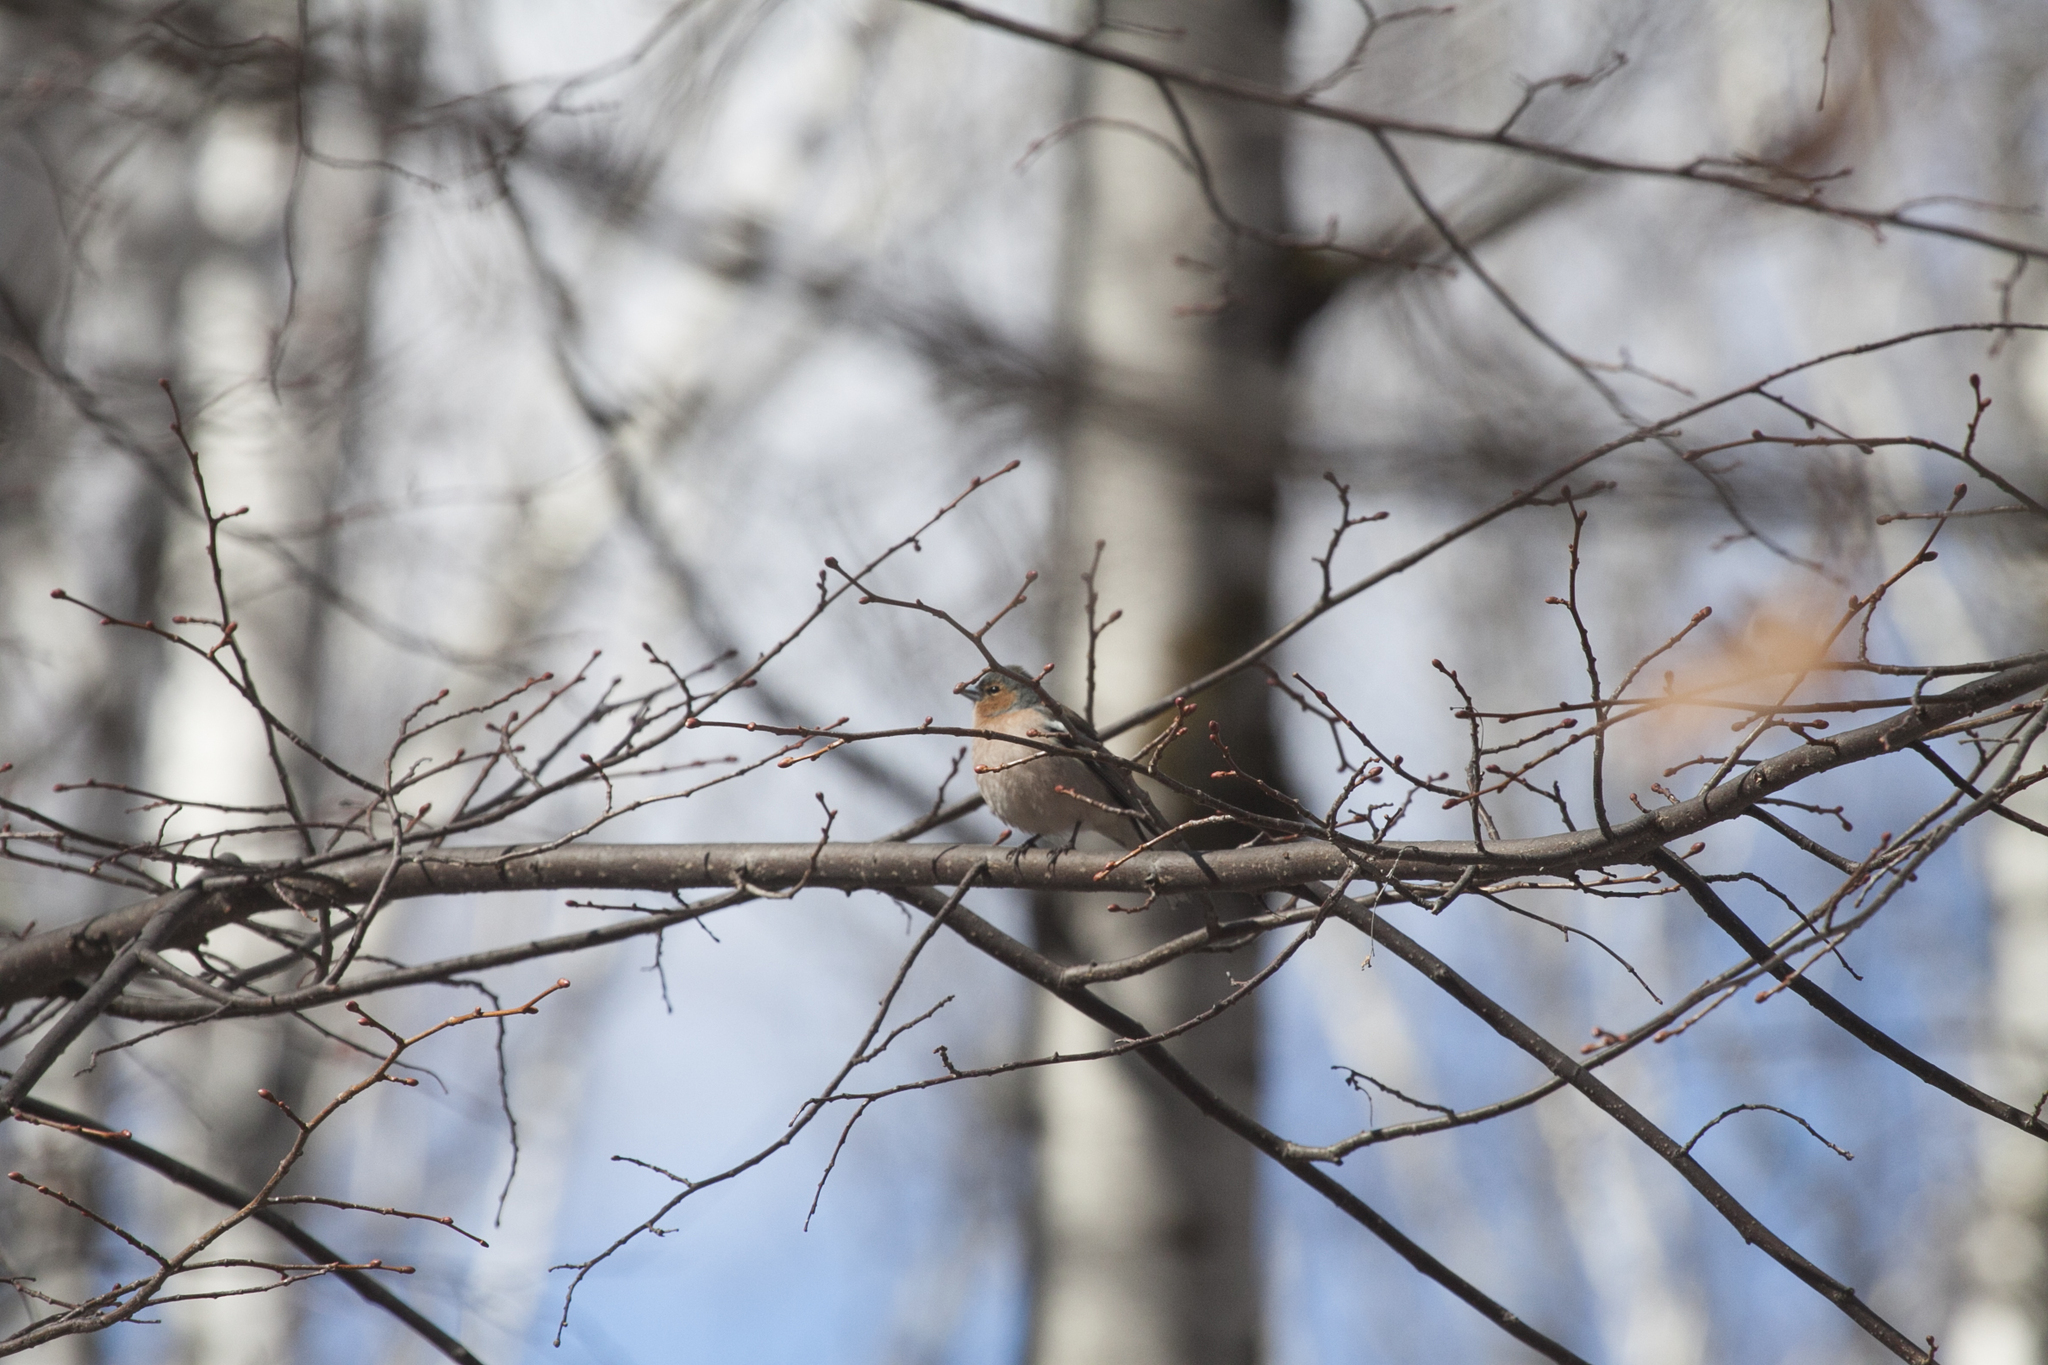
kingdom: Animalia
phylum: Chordata
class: Aves
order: Passeriformes
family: Fringillidae
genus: Fringilla
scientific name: Fringilla coelebs
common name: Common chaffinch
